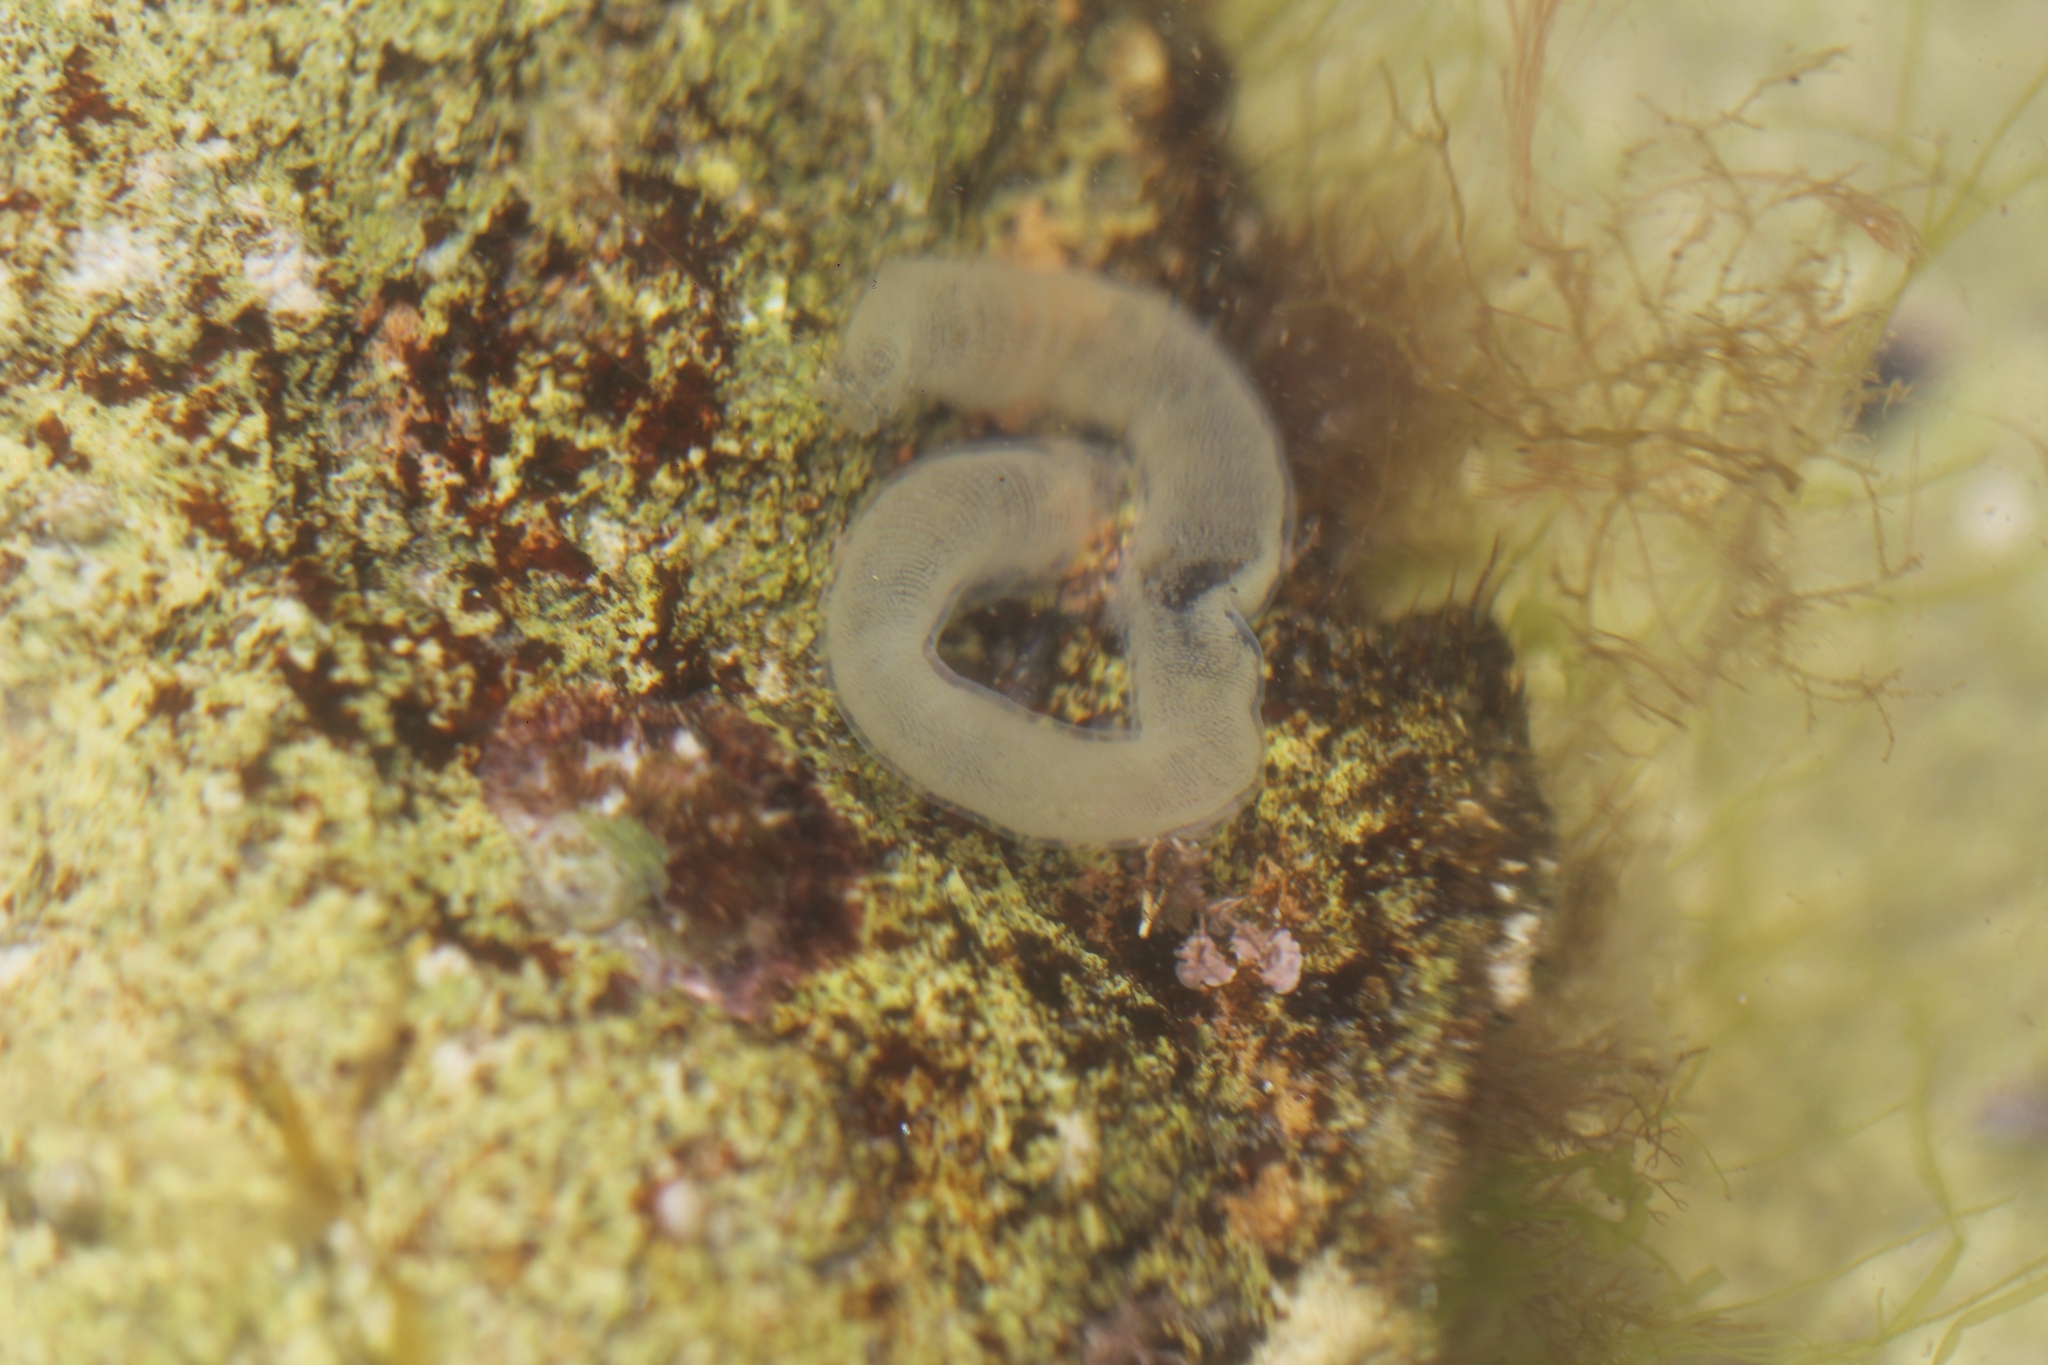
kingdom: Animalia
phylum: Mollusca
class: Gastropoda
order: Pleurobranchida
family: Pleurobranchaeidae
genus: Pleurobranchaea
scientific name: Pleurobranchaea maculata
